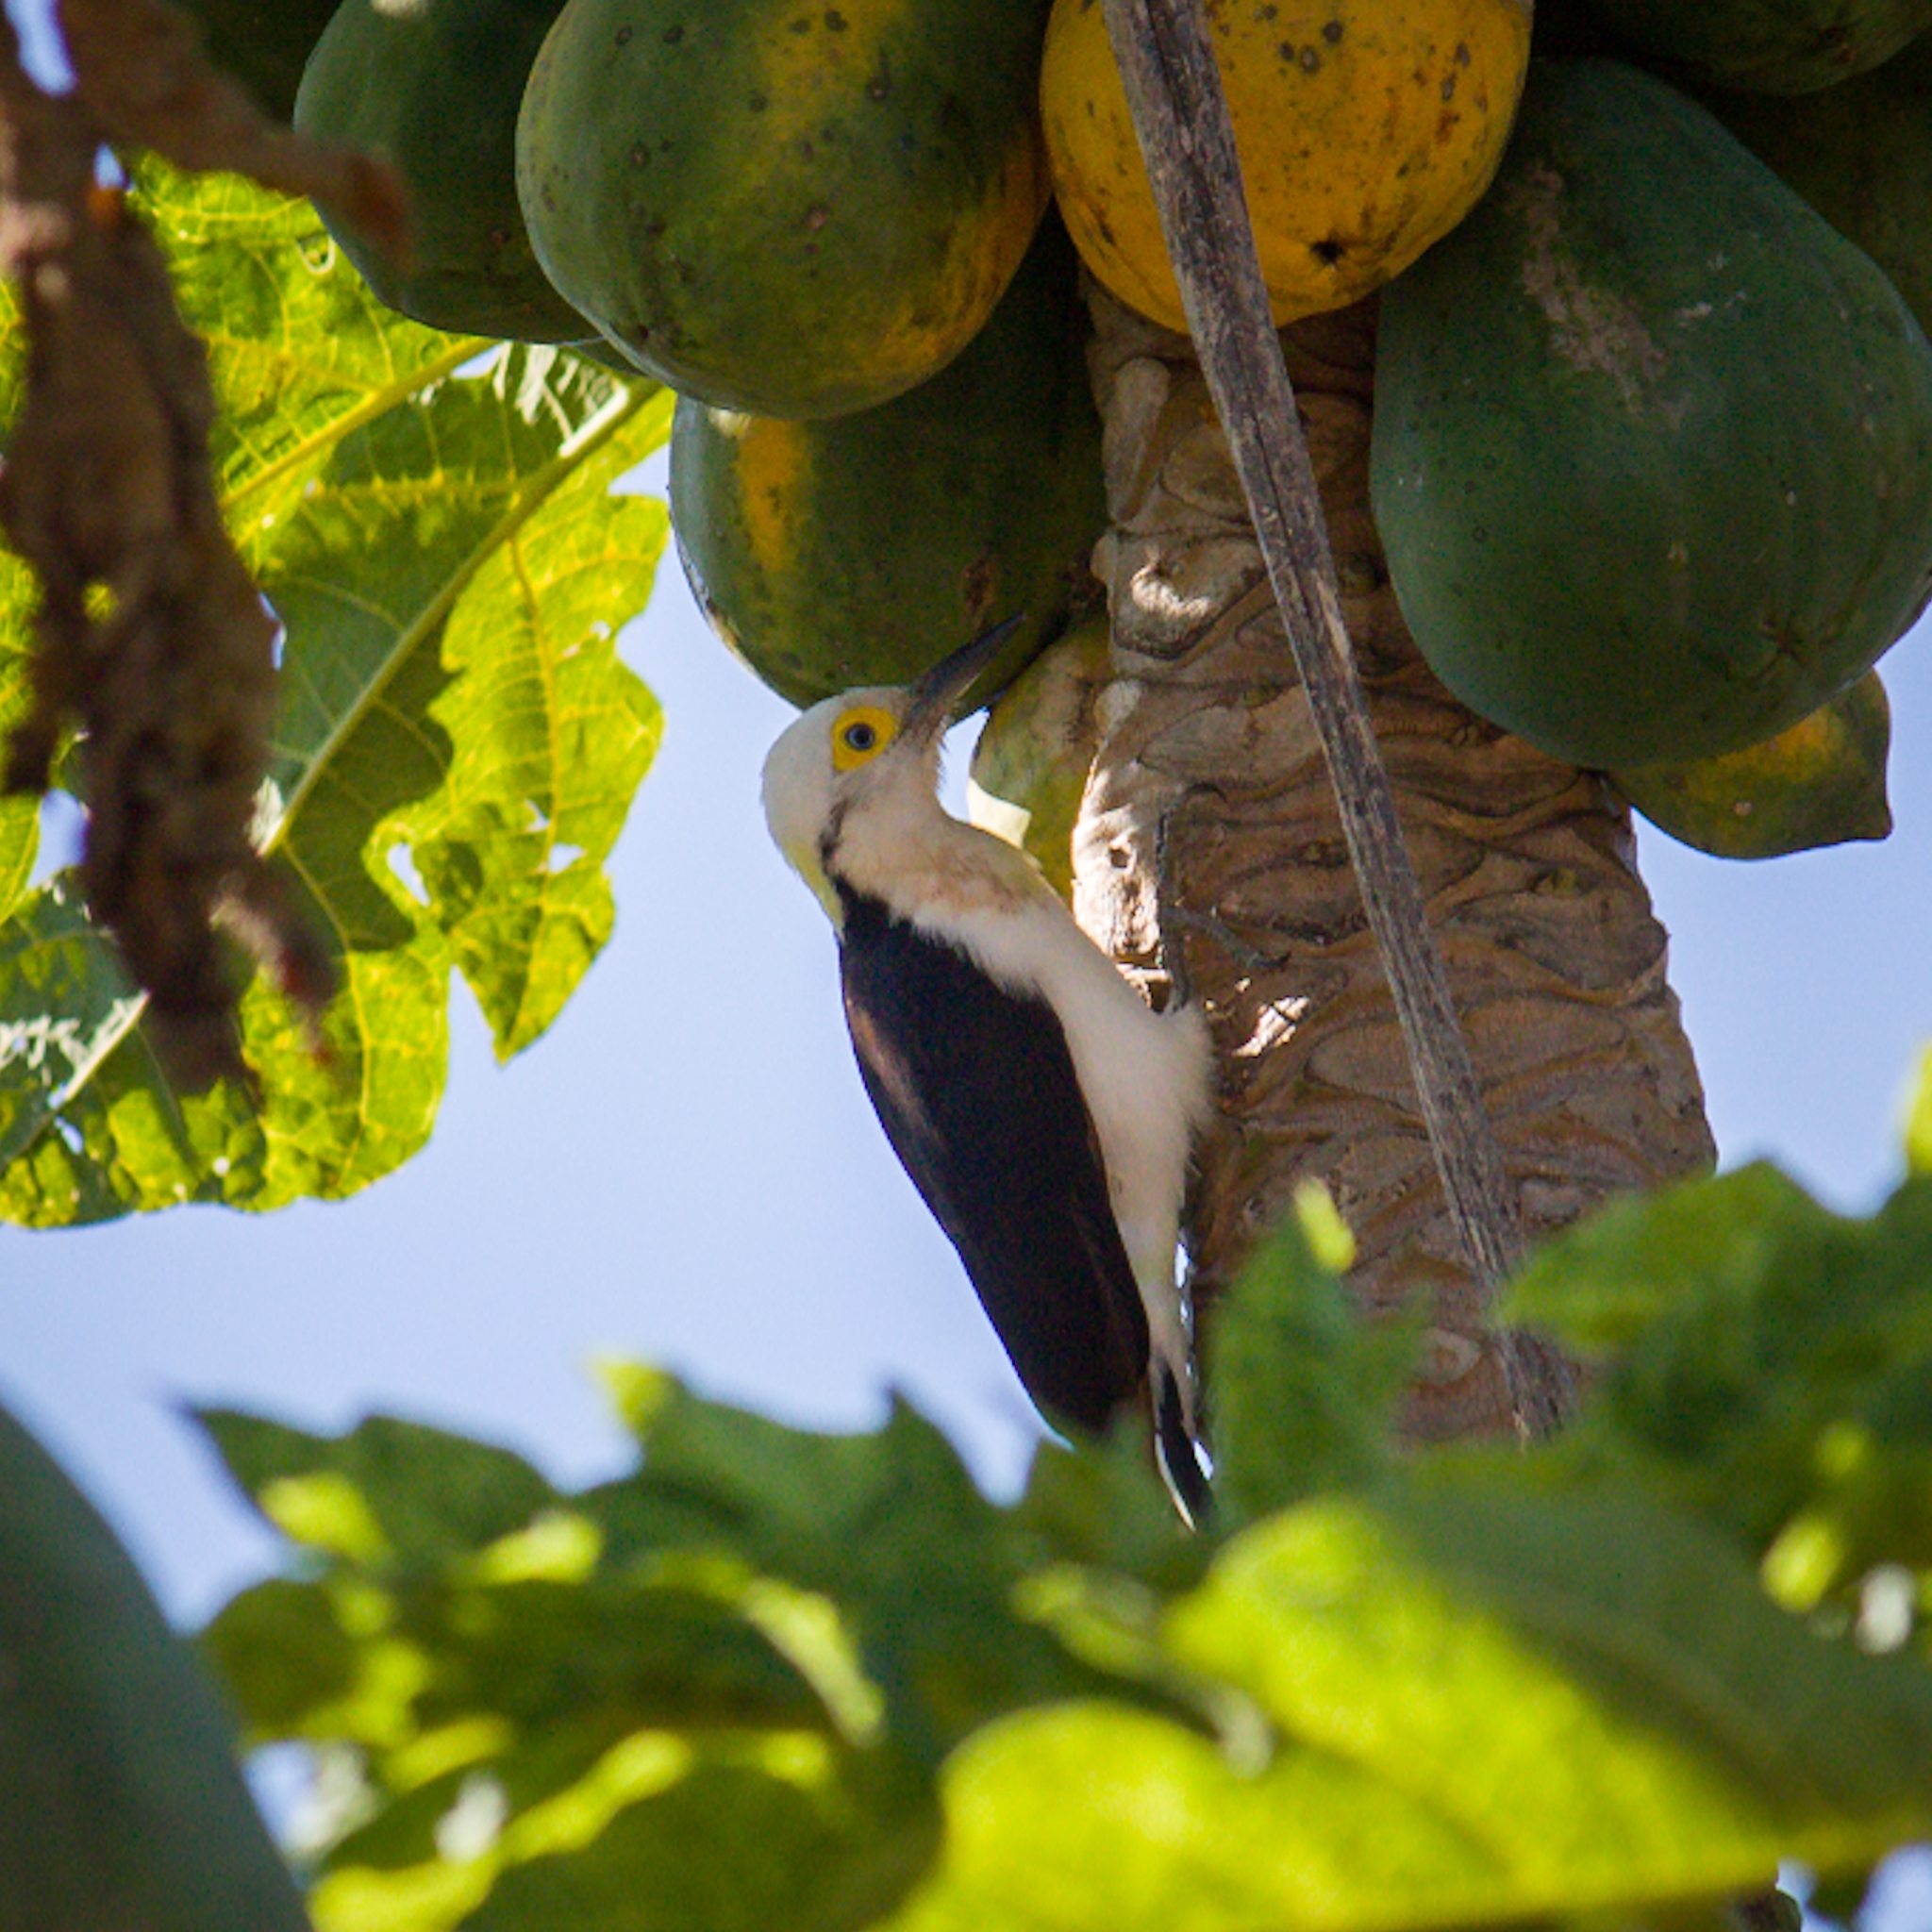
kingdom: Animalia
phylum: Chordata
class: Aves
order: Piciformes
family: Picidae
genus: Melanerpes
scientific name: Melanerpes candidus
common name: White woodpecker
